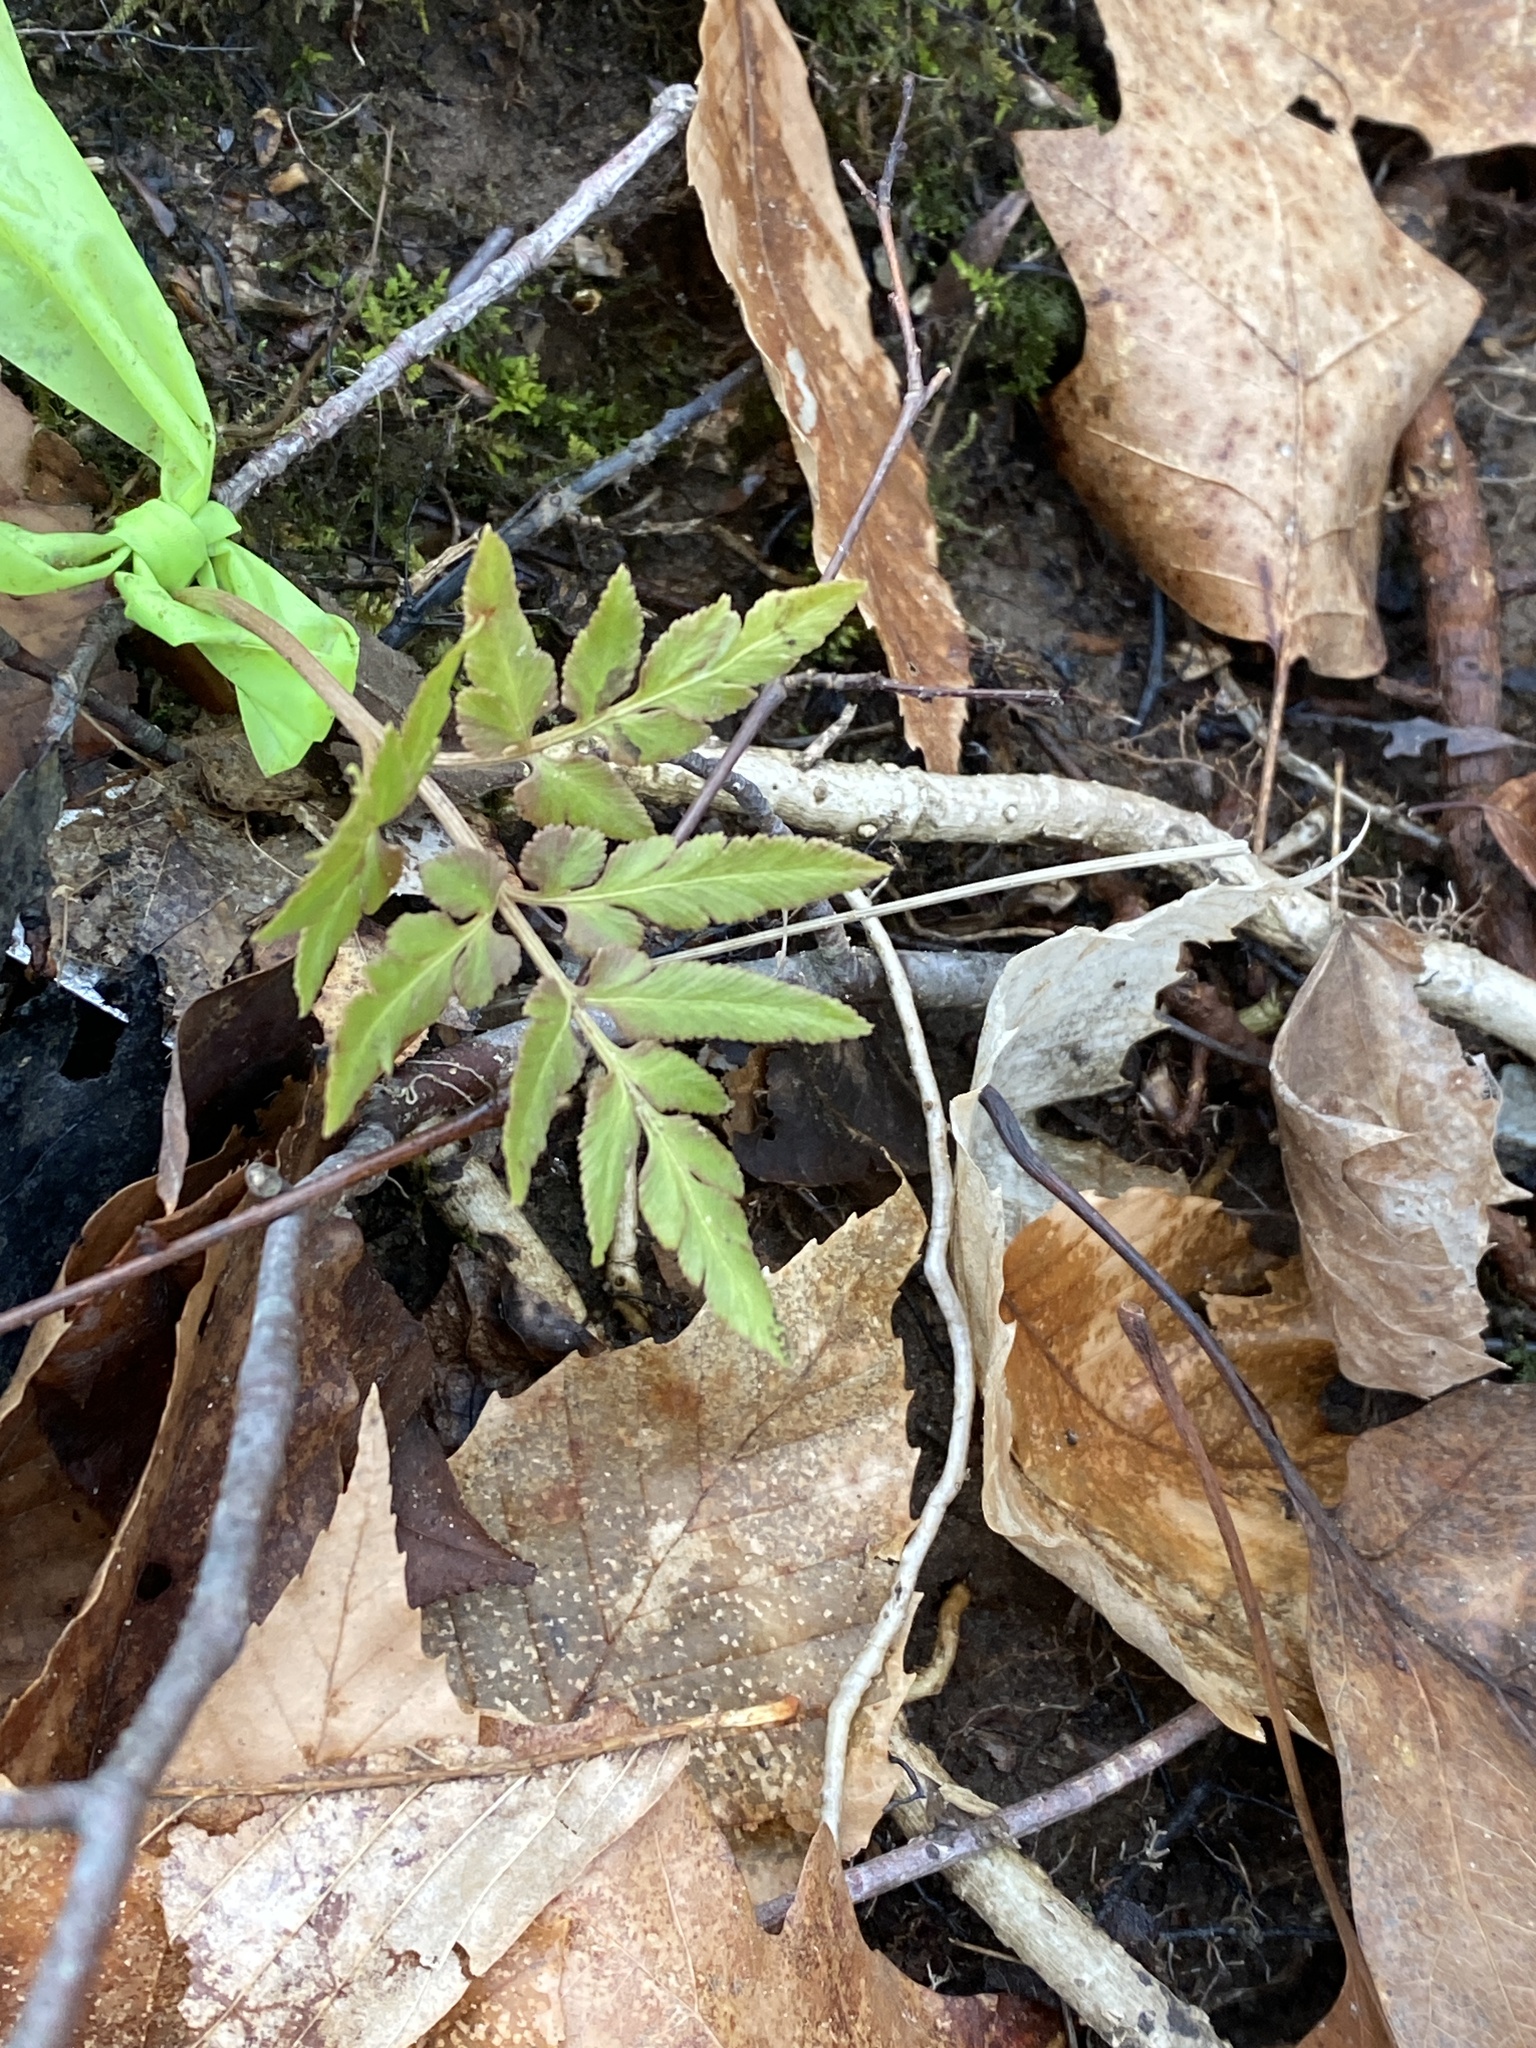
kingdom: Plantae
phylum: Tracheophyta
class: Polypodiopsida
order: Ophioglossales
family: Ophioglossaceae
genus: Sceptridium
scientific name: Sceptridium dissectum
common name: Cut-leaved grapefern
